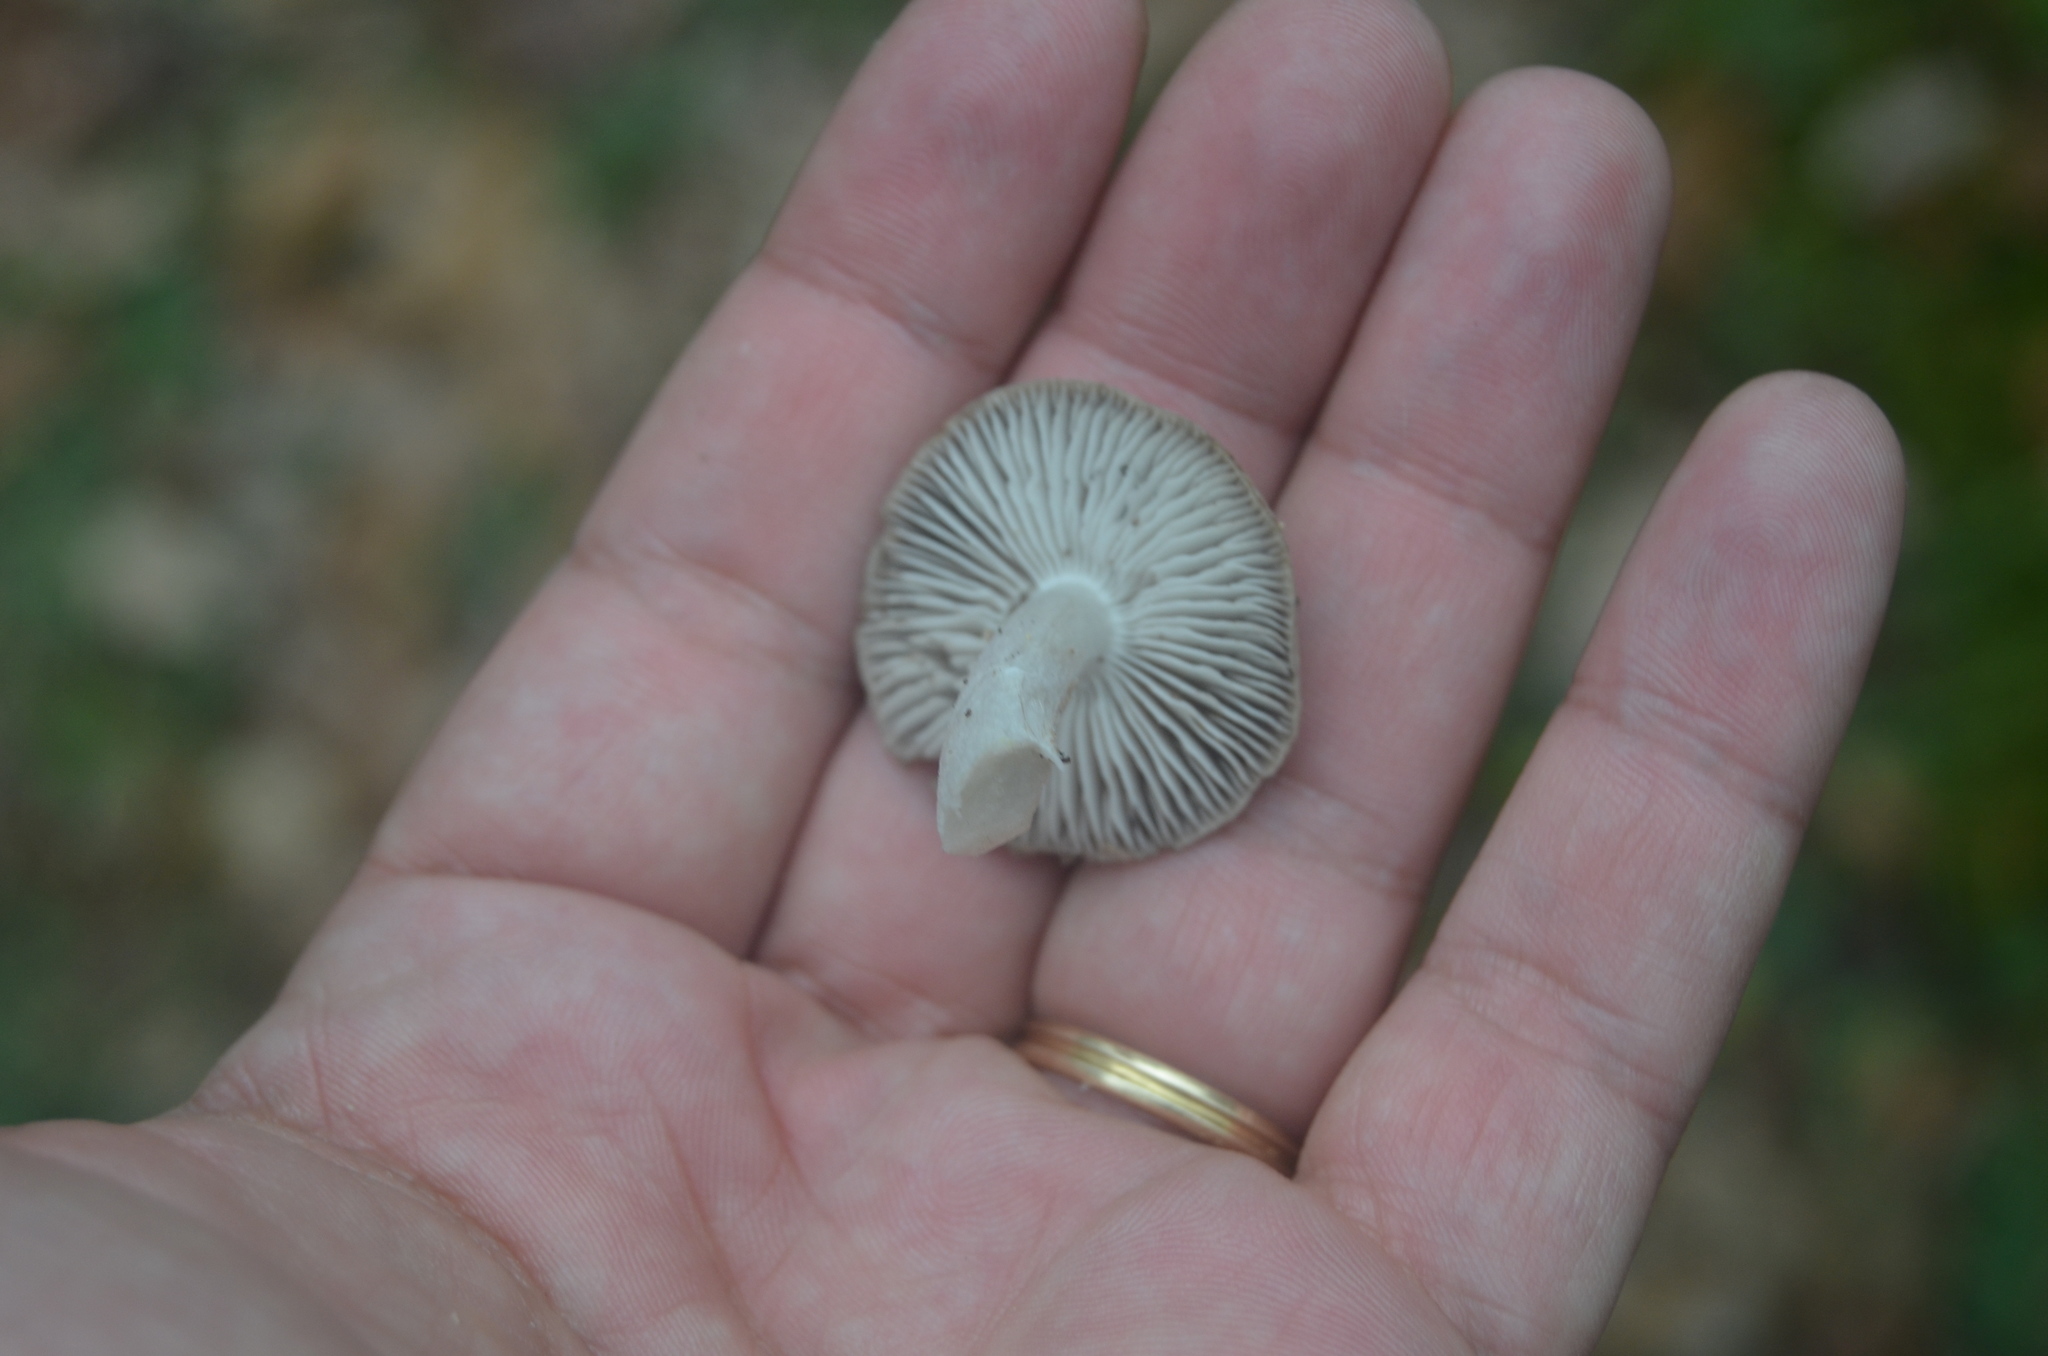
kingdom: Fungi
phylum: Basidiomycota
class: Agaricomycetes
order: Agaricales
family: Tricholomataceae
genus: Tricholoma
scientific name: Tricholoma terreum
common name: Grey knight
